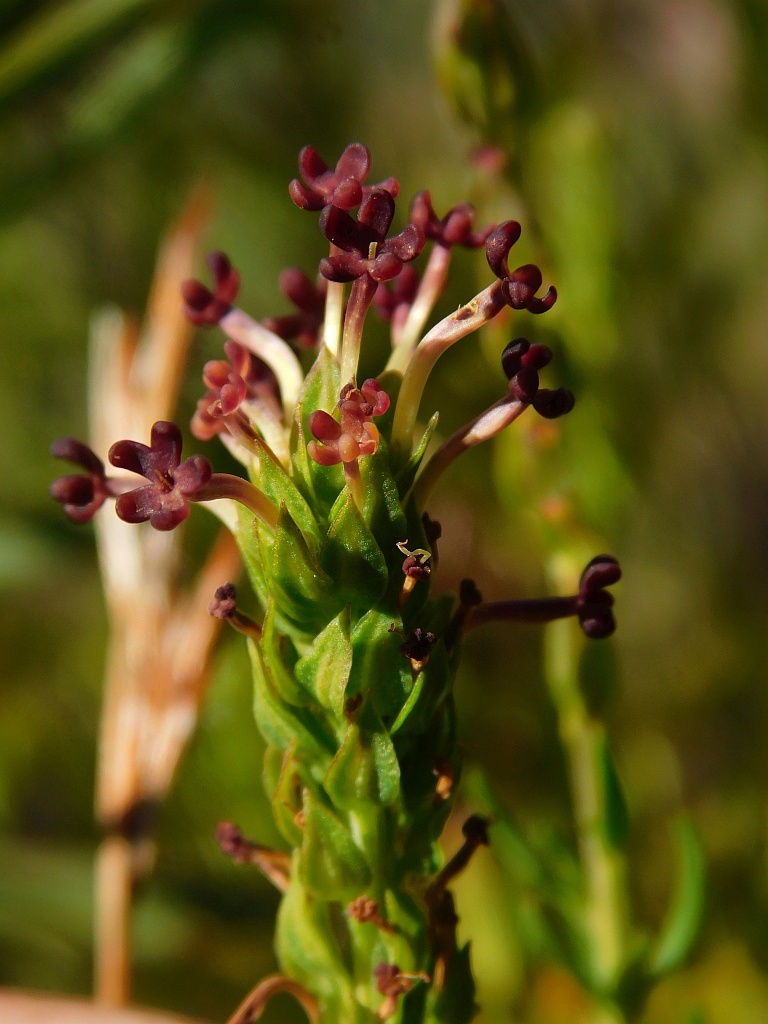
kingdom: Plantae
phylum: Tracheophyta
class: Magnoliopsida
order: Lamiales
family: Scrophulariaceae
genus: Microdon
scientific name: Microdon dubius
